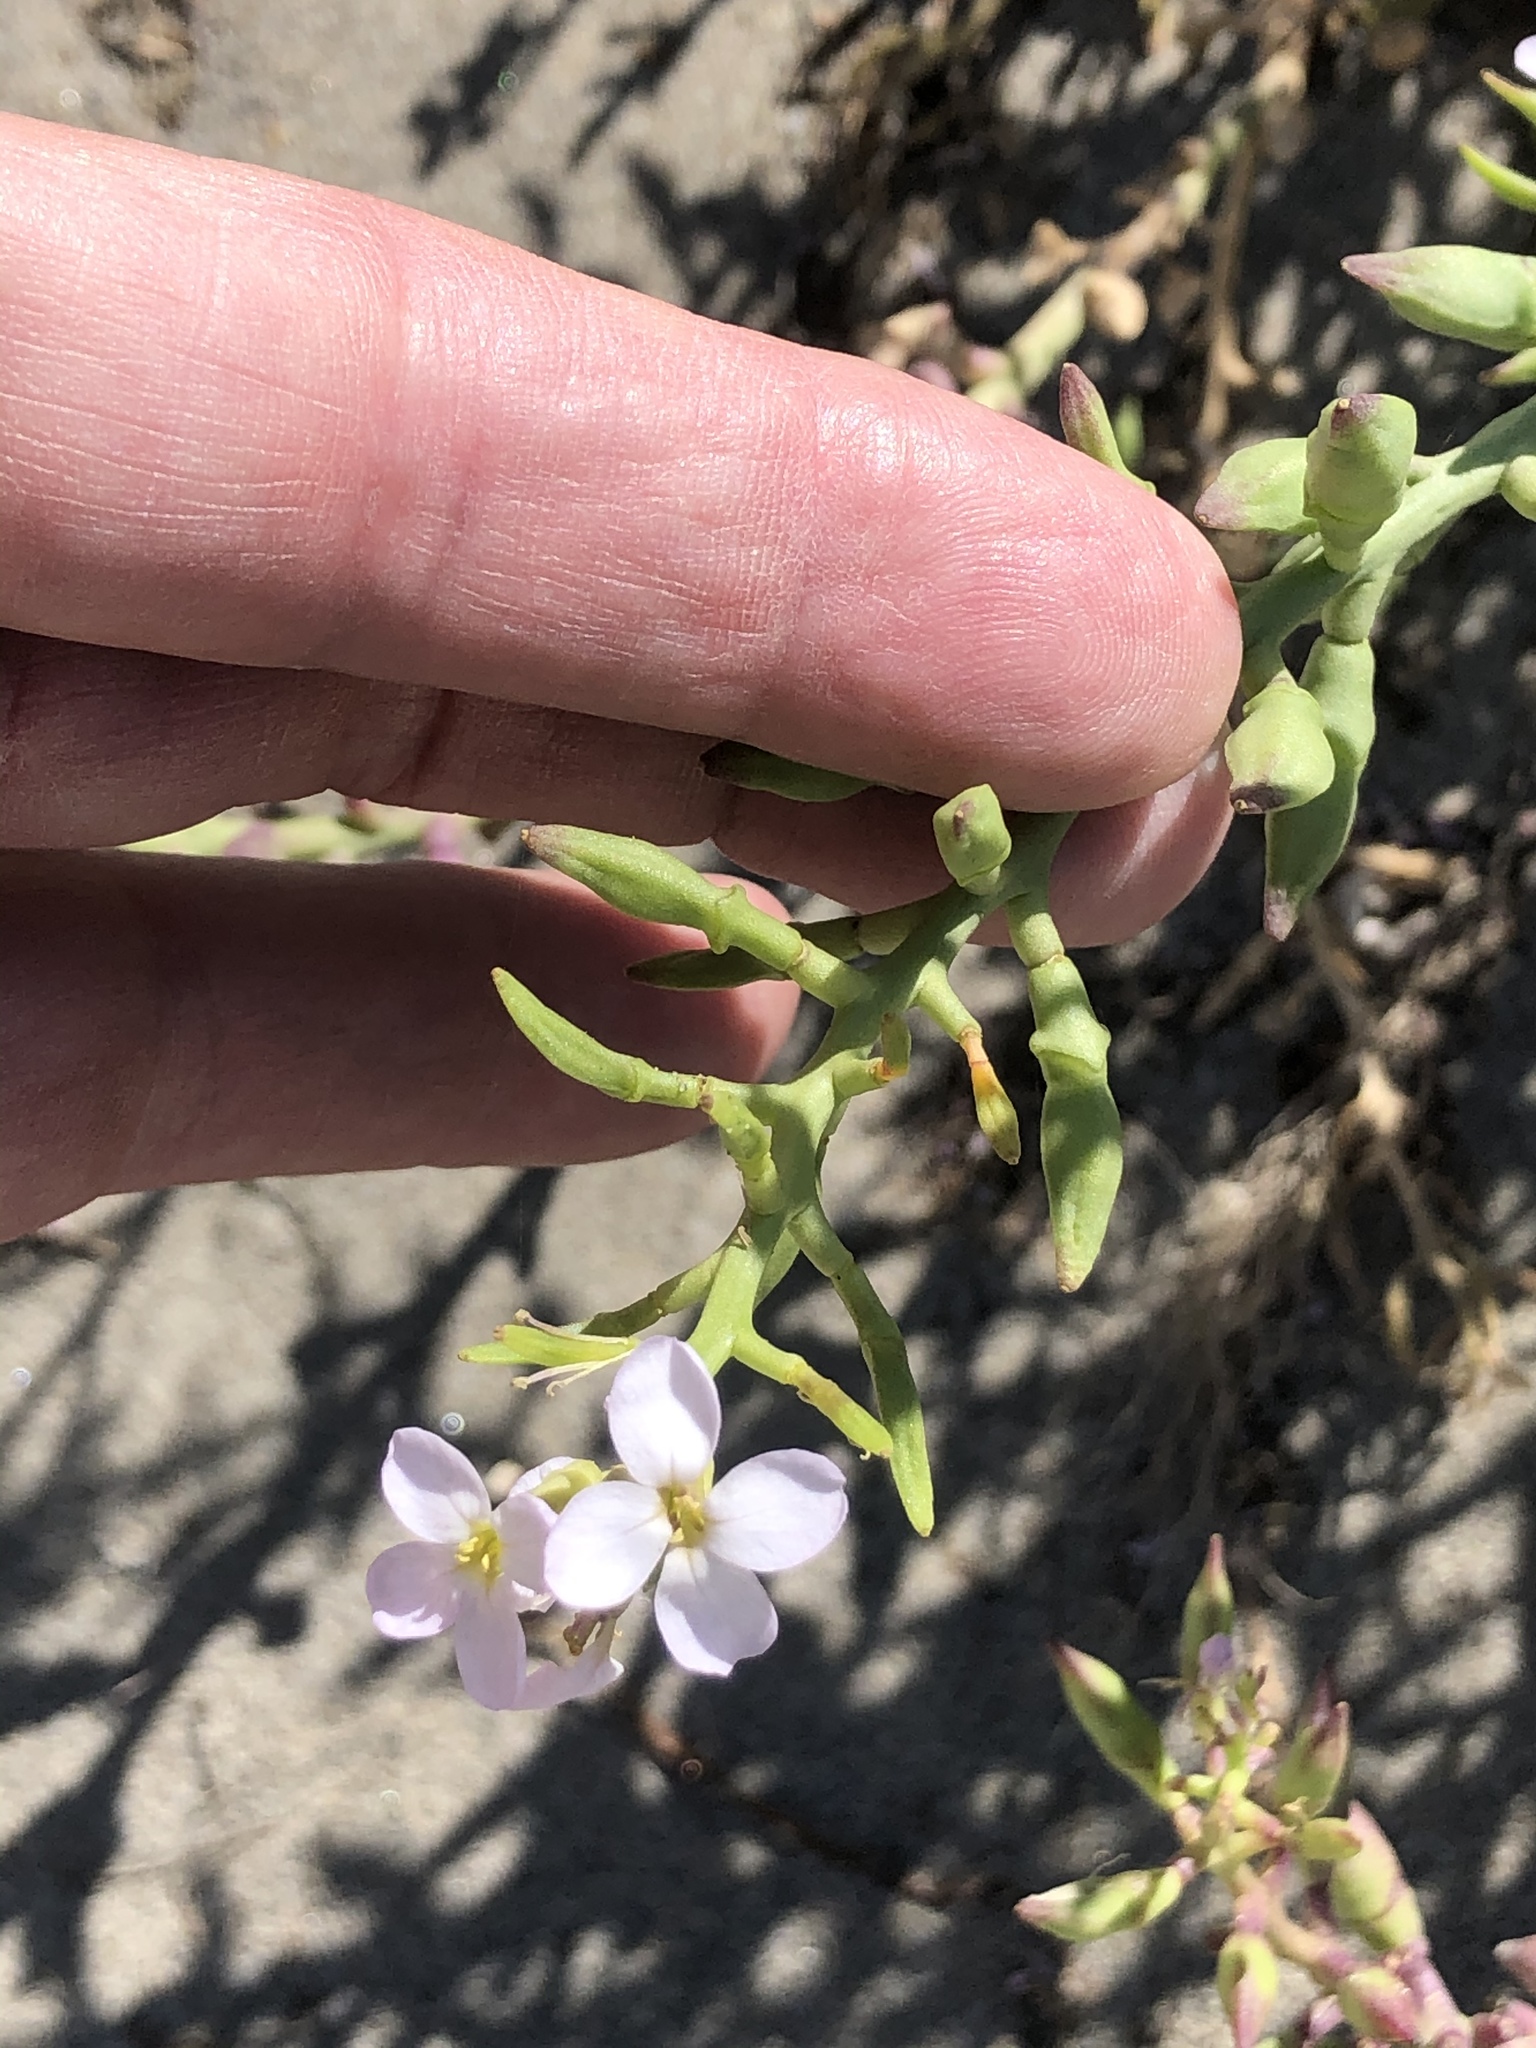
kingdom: Plantae
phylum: Tracheophyta
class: Magnoliopsida
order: Brassicales
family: Brassicaceae
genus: Cakile
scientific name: Cakile maritima
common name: Sea rocket
